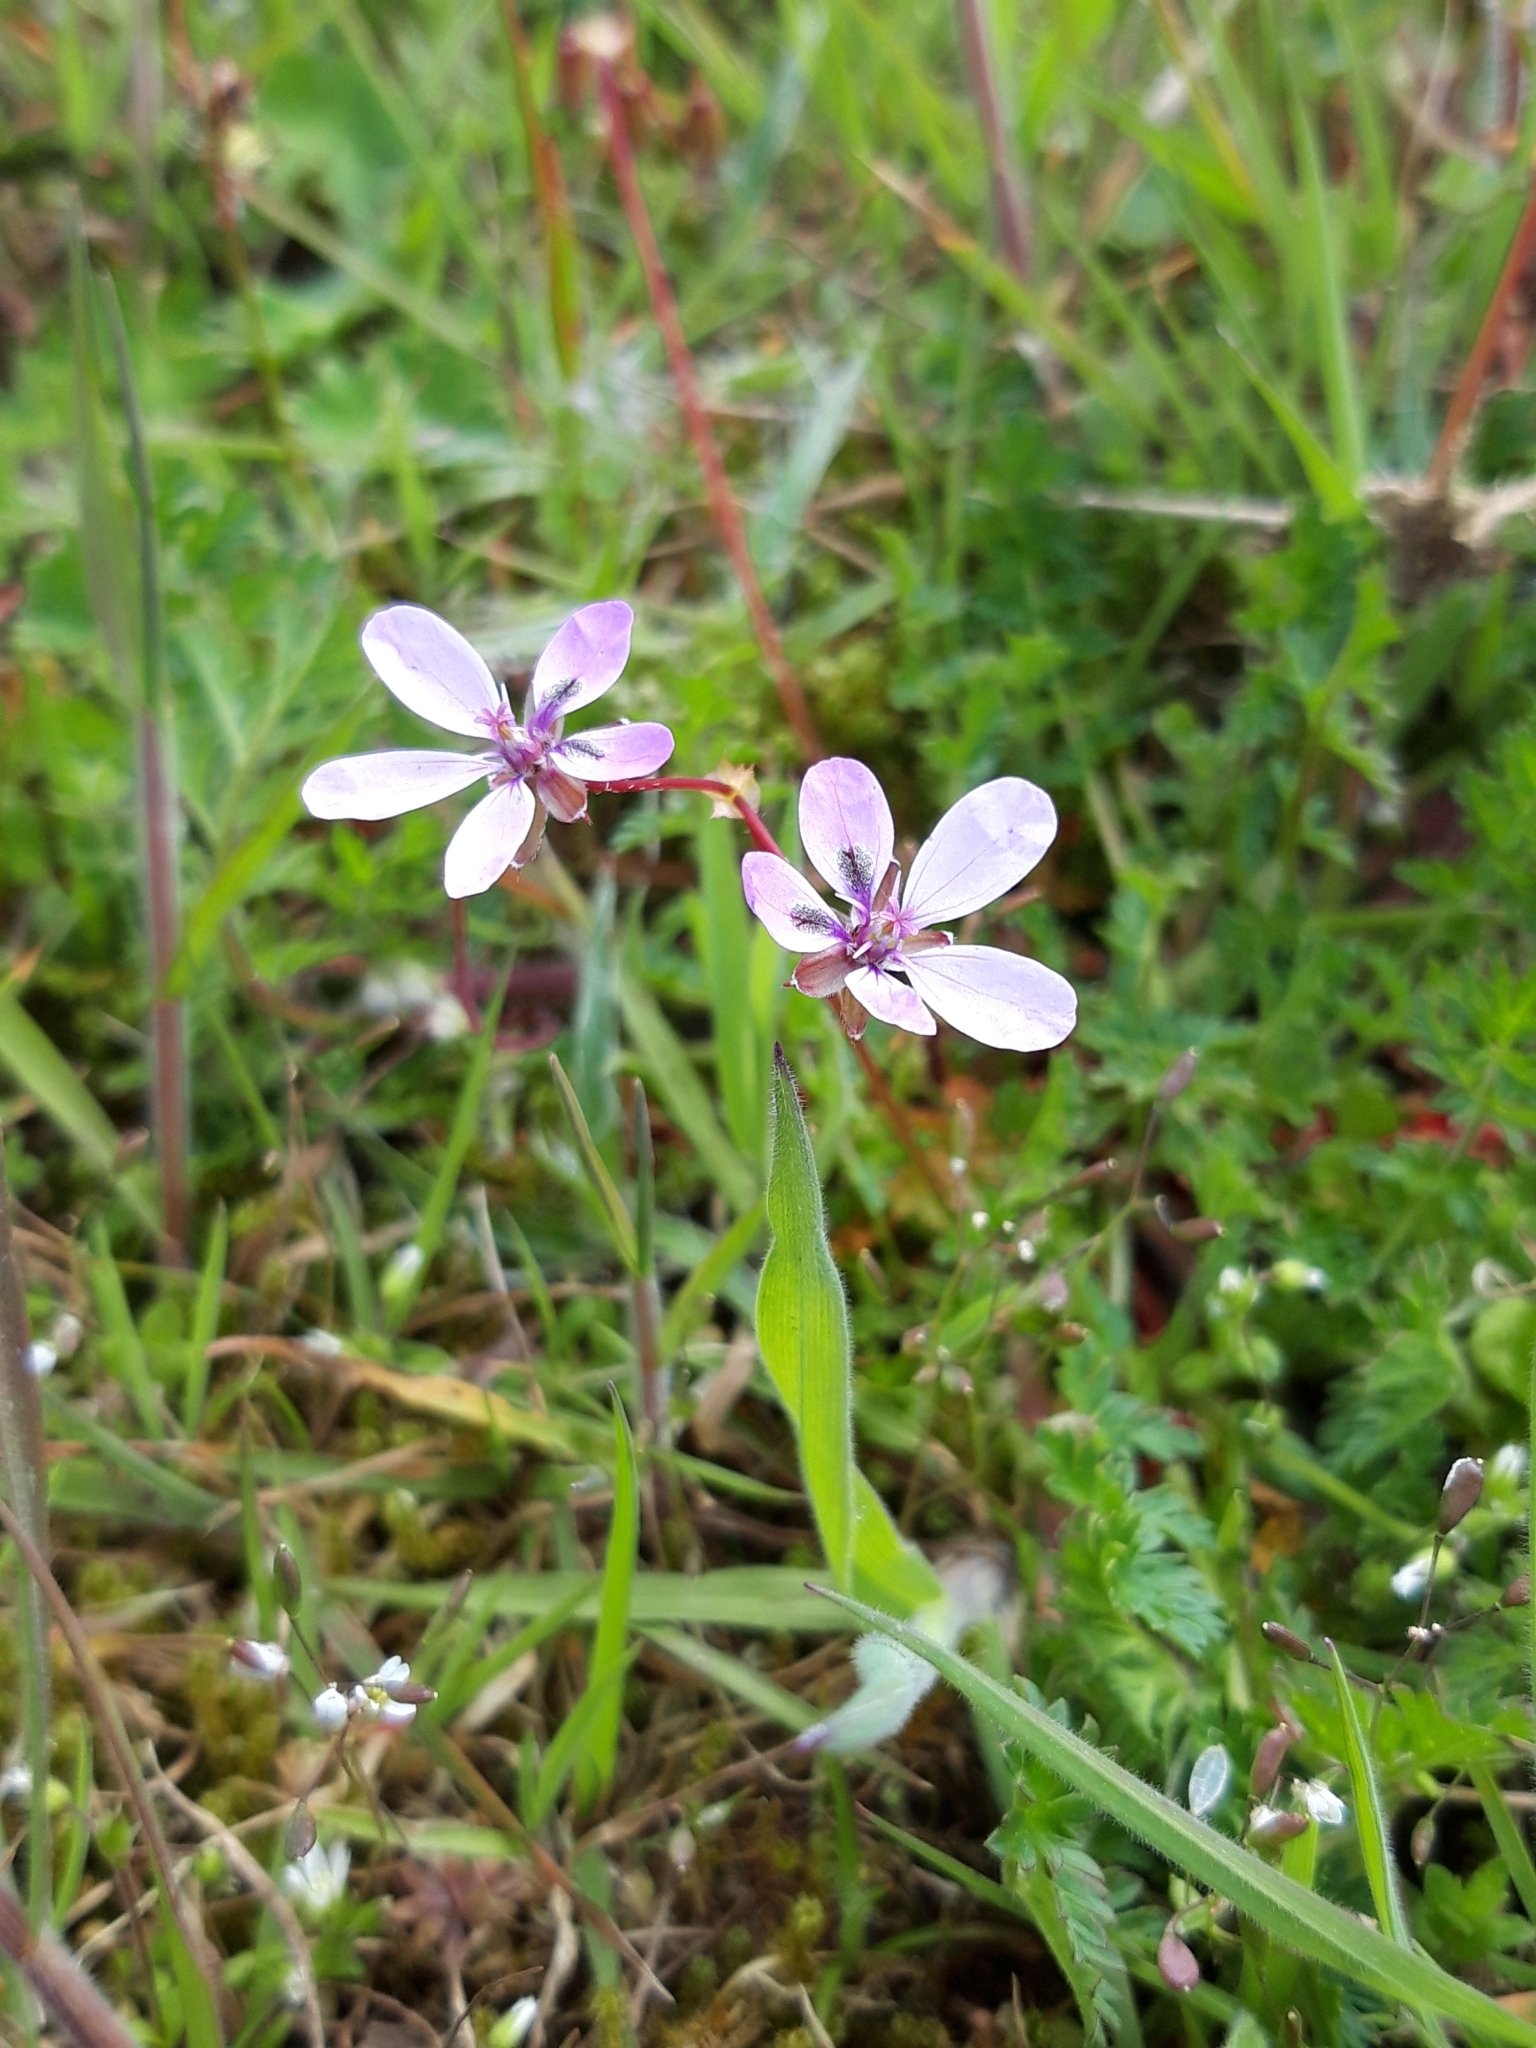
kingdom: Plantae
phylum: Tracheophyta
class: Magnoliopsida
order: Geraniales
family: Geraniaceae
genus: Erodium
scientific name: Erodium cicutarium
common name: Common stork's-bill
